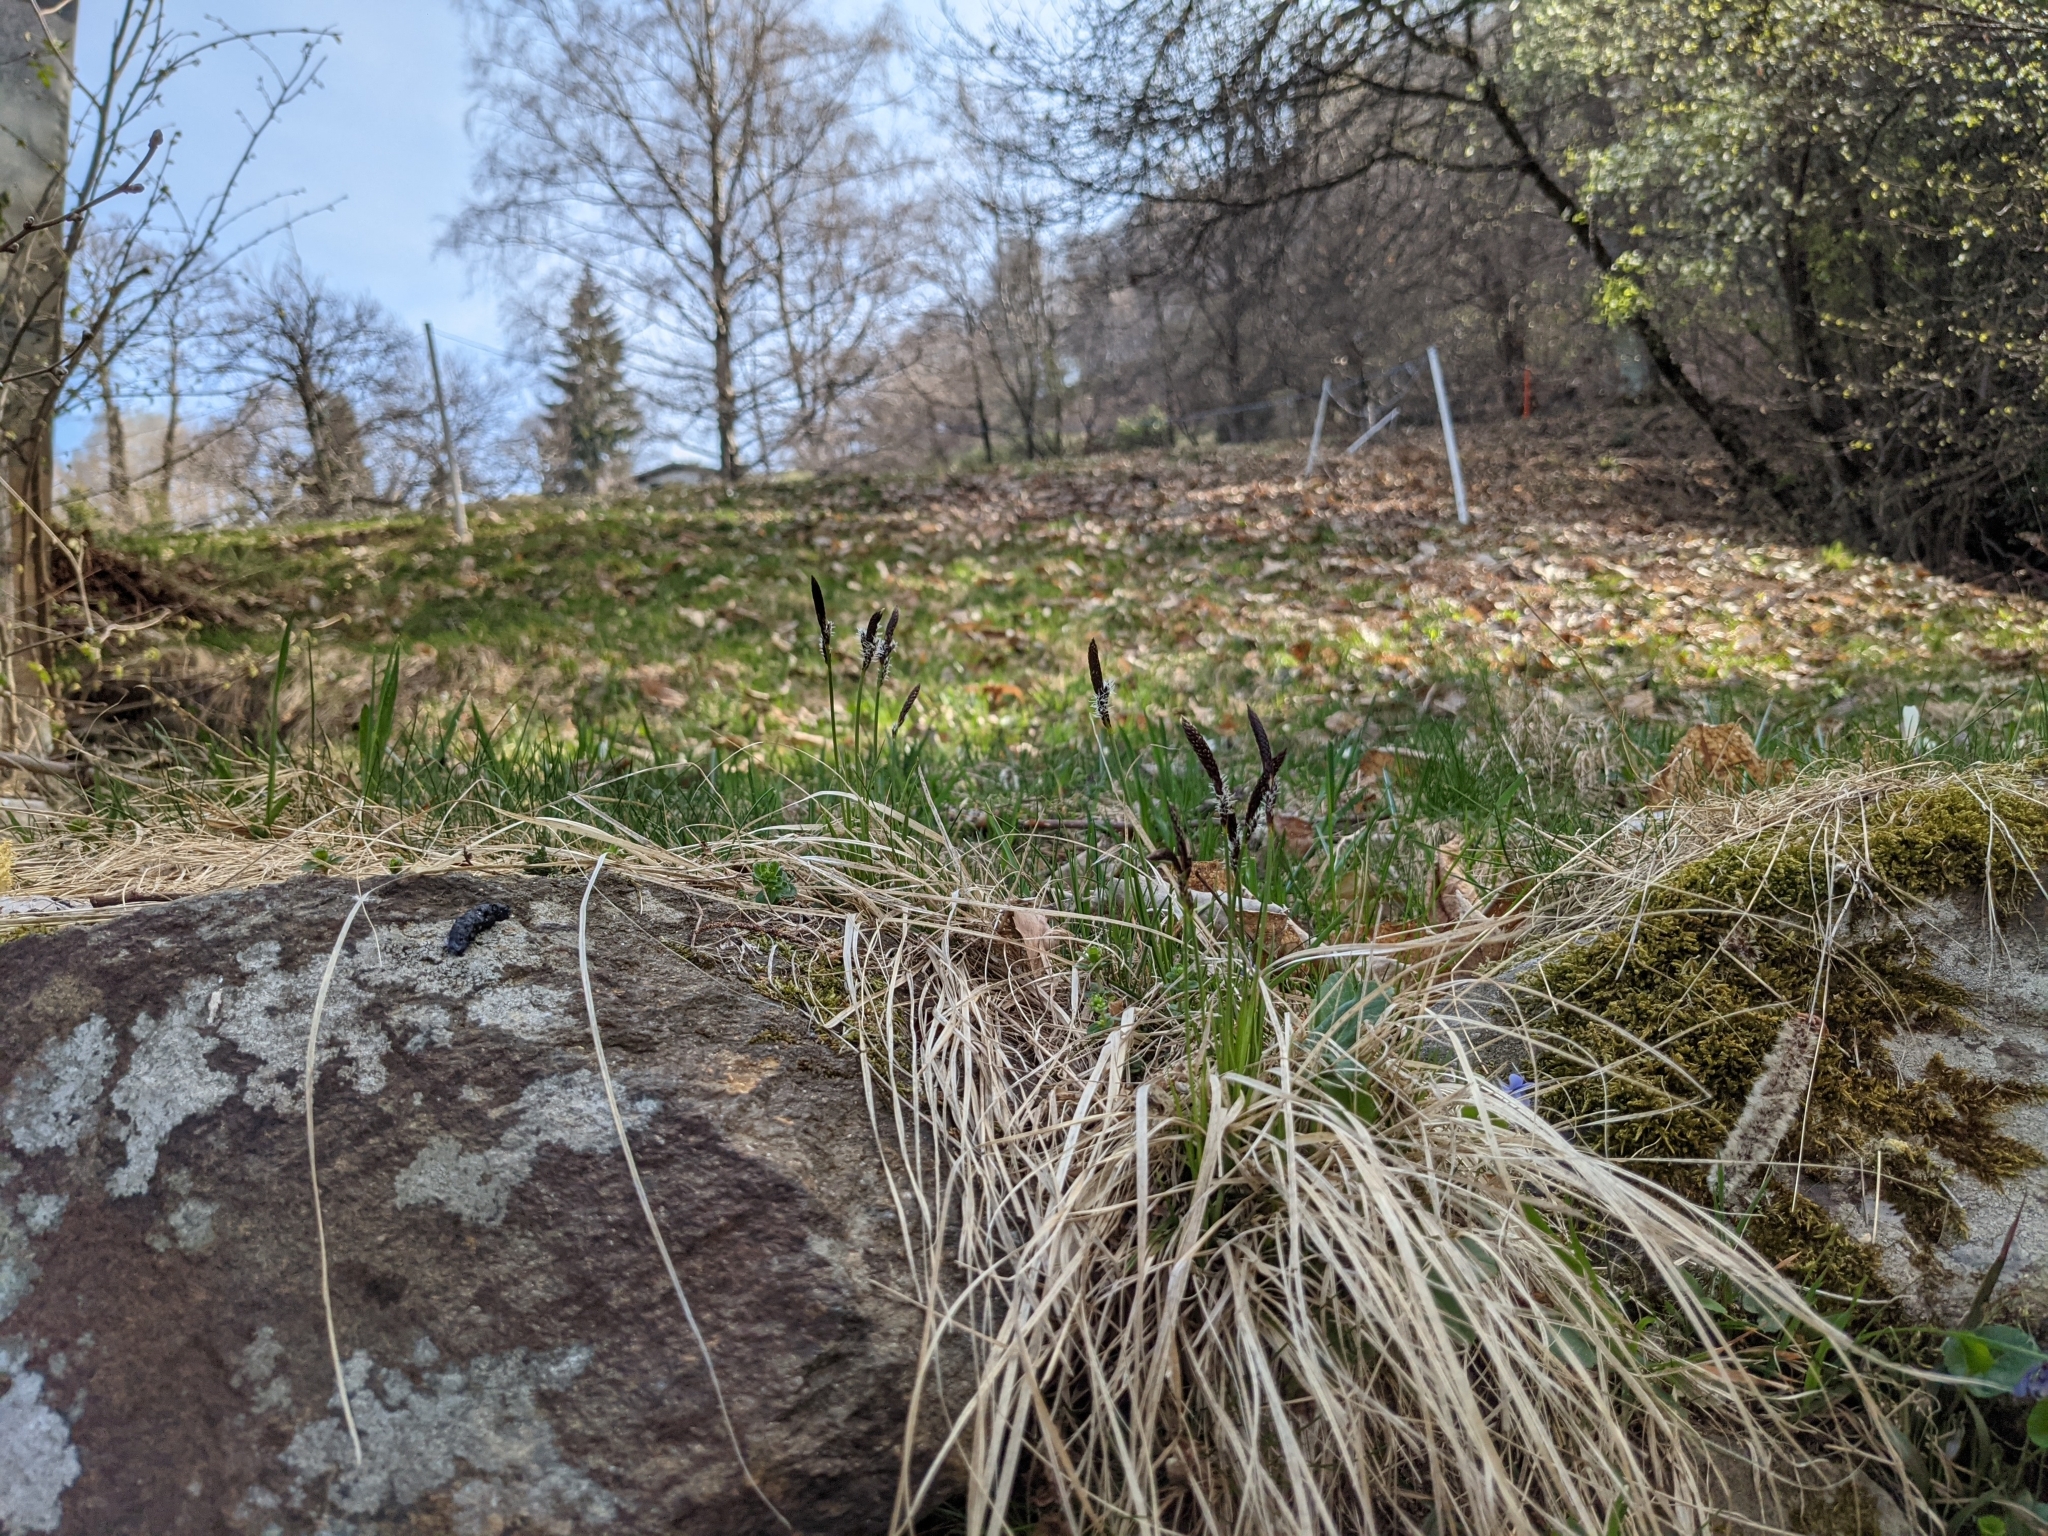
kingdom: Plantae
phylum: Tracheophyta
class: Liliopsida
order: Poales
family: Cyperaceae
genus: Carex
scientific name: Carex montana
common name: Soft-leaved sedge
